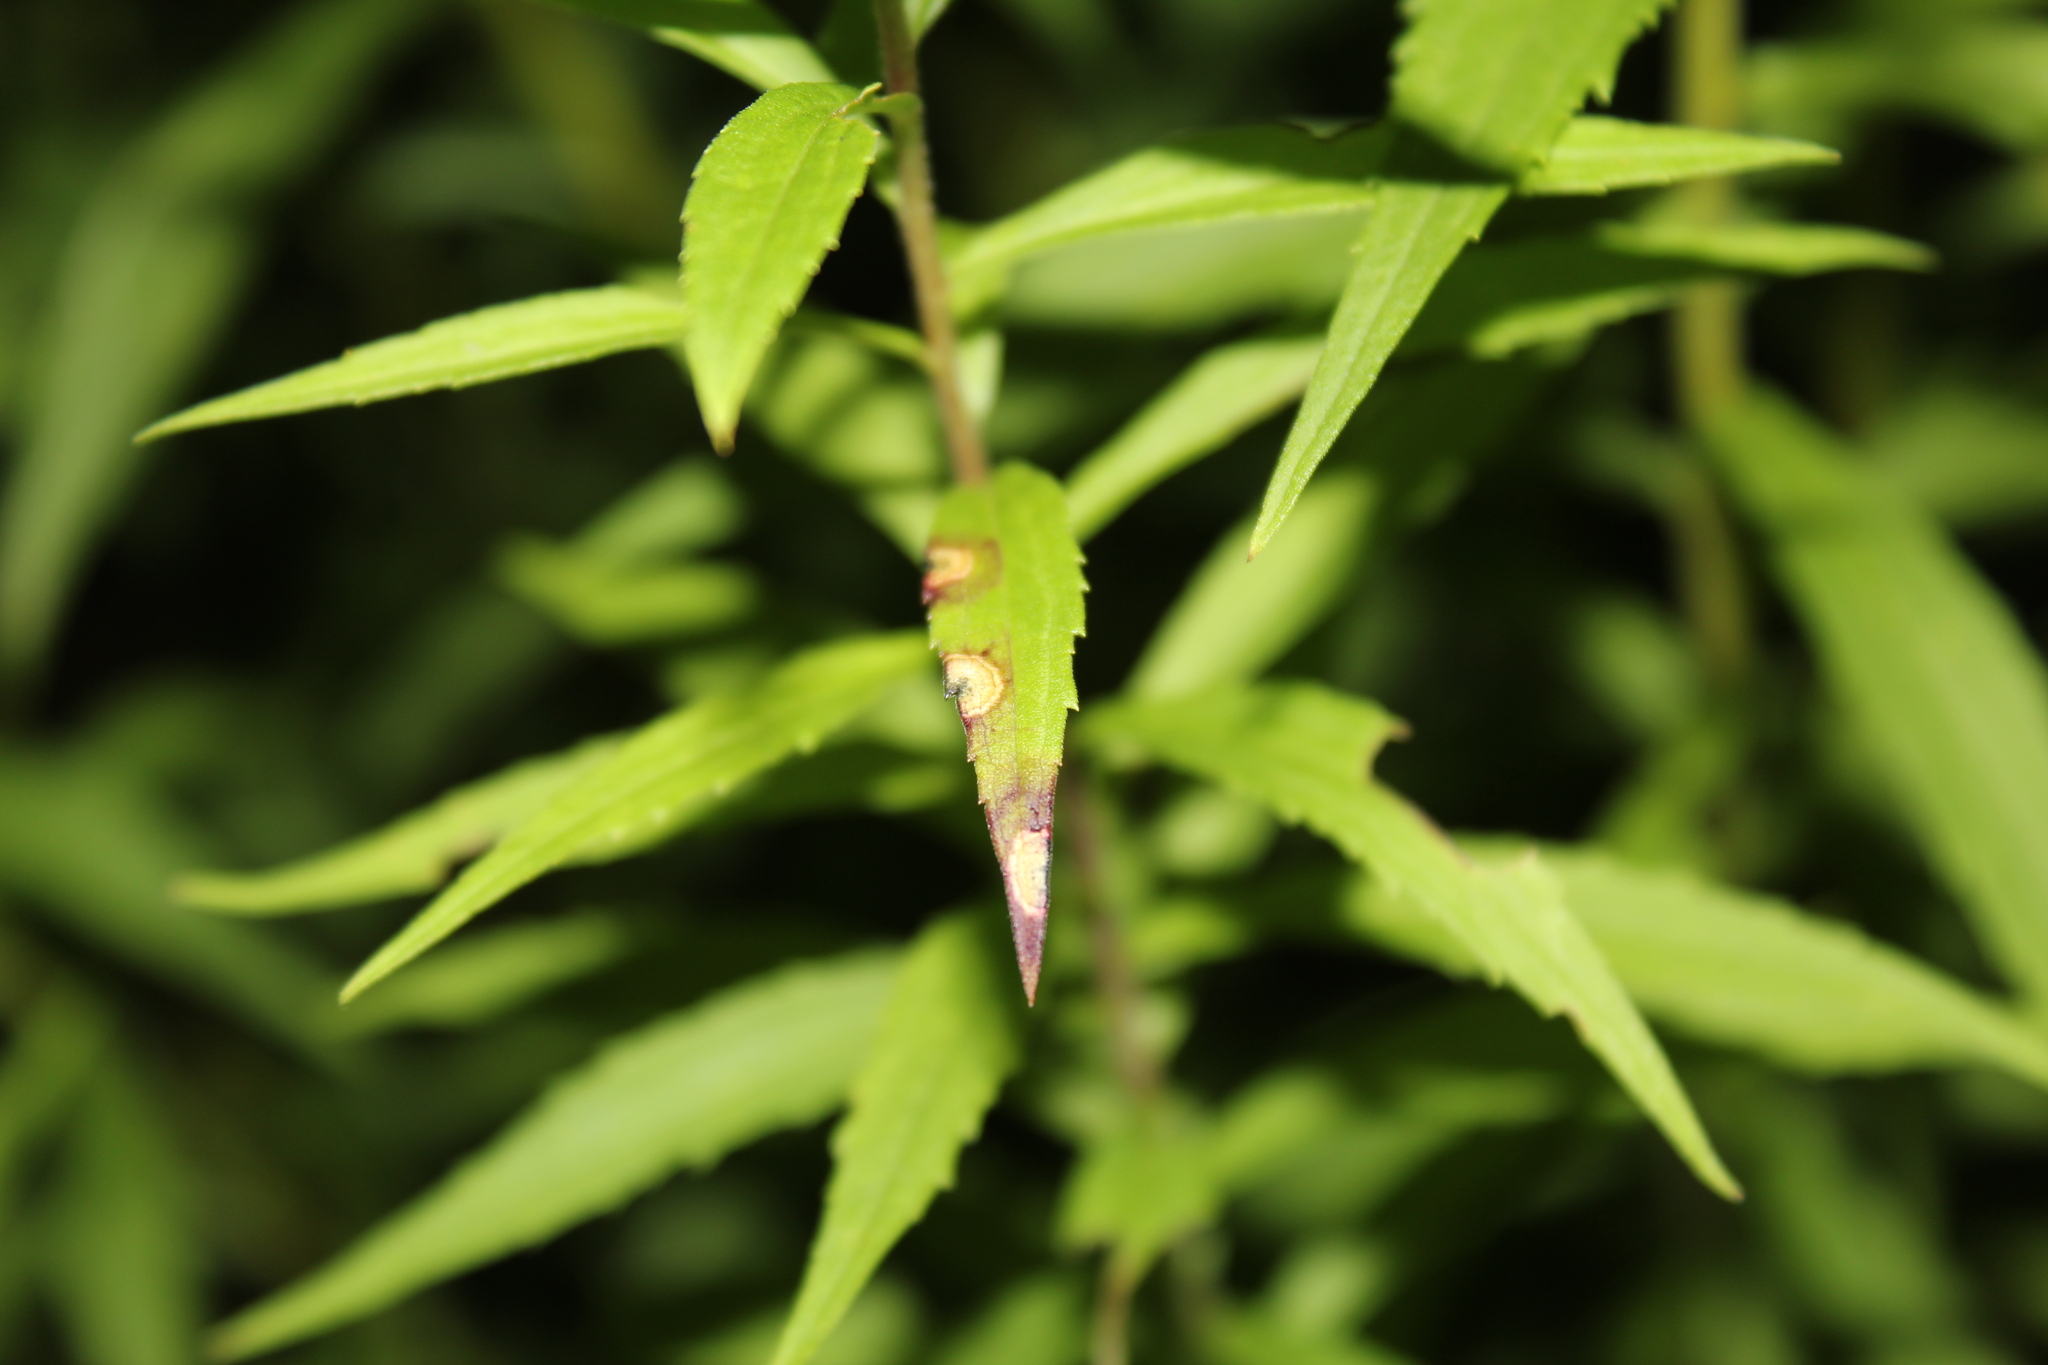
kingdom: Animalia
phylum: Arthropoda
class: Insecta
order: Diptera
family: Cecidomyiidae
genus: Asteromyia
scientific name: Asteromyia carbonifera
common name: Carbonifera goldenrod gall midge
